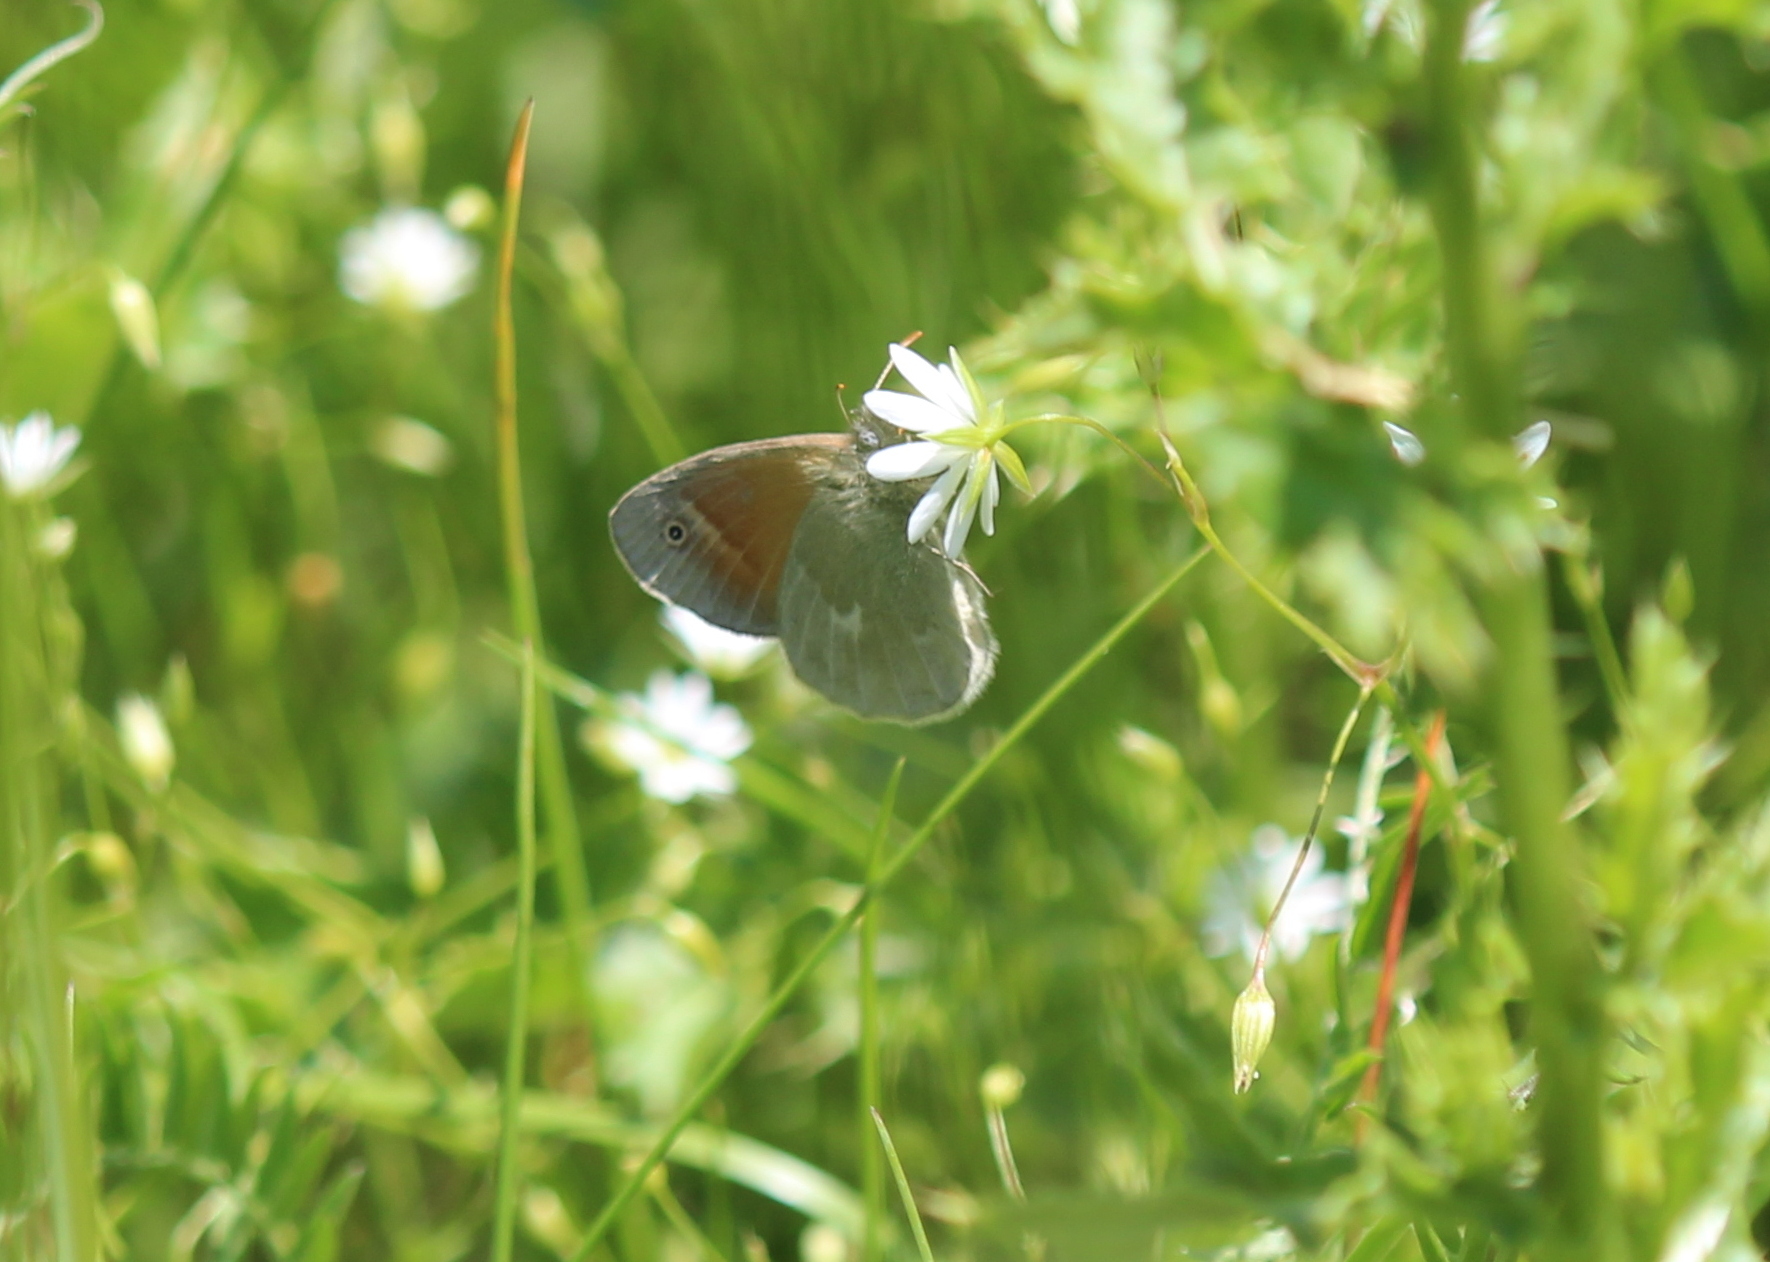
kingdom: Animalia
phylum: Arthropoda
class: Insecta
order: Lepidoptera
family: Nymphalidae
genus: Coenonympha
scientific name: Coenonympha california
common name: Common ringlet
